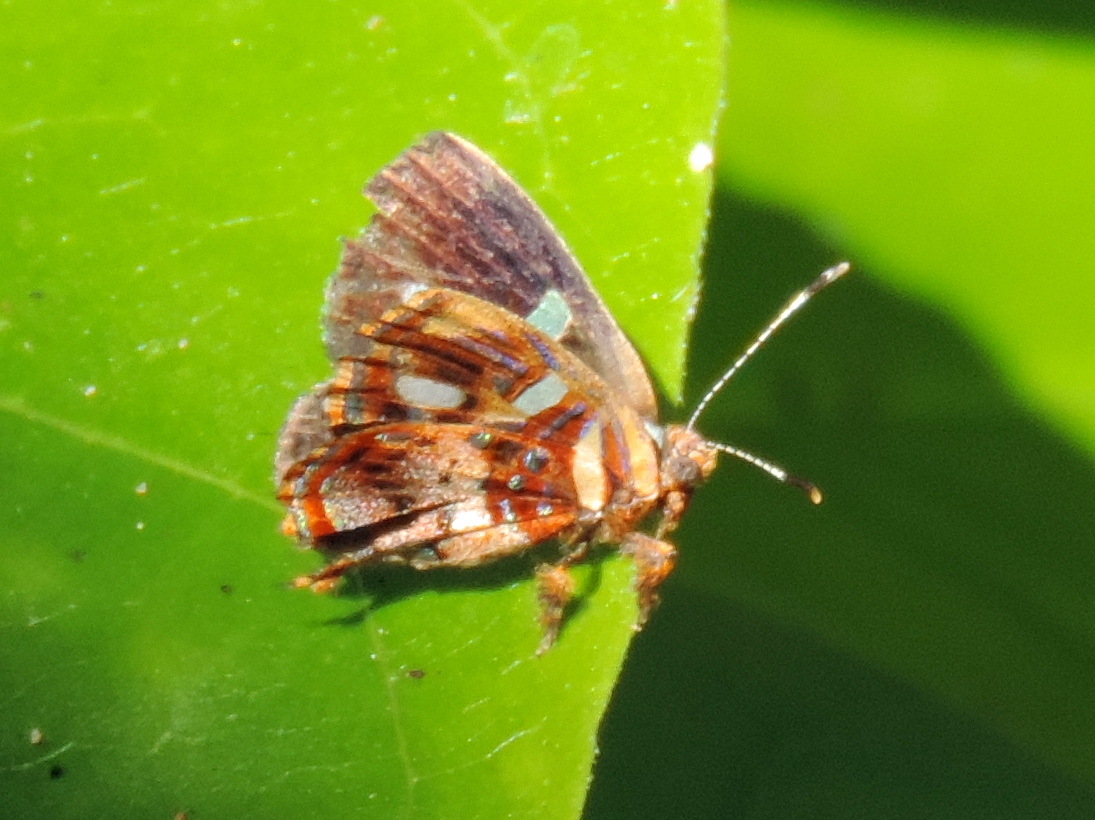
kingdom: Animalia
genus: Anteros
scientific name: Anteros carausius
